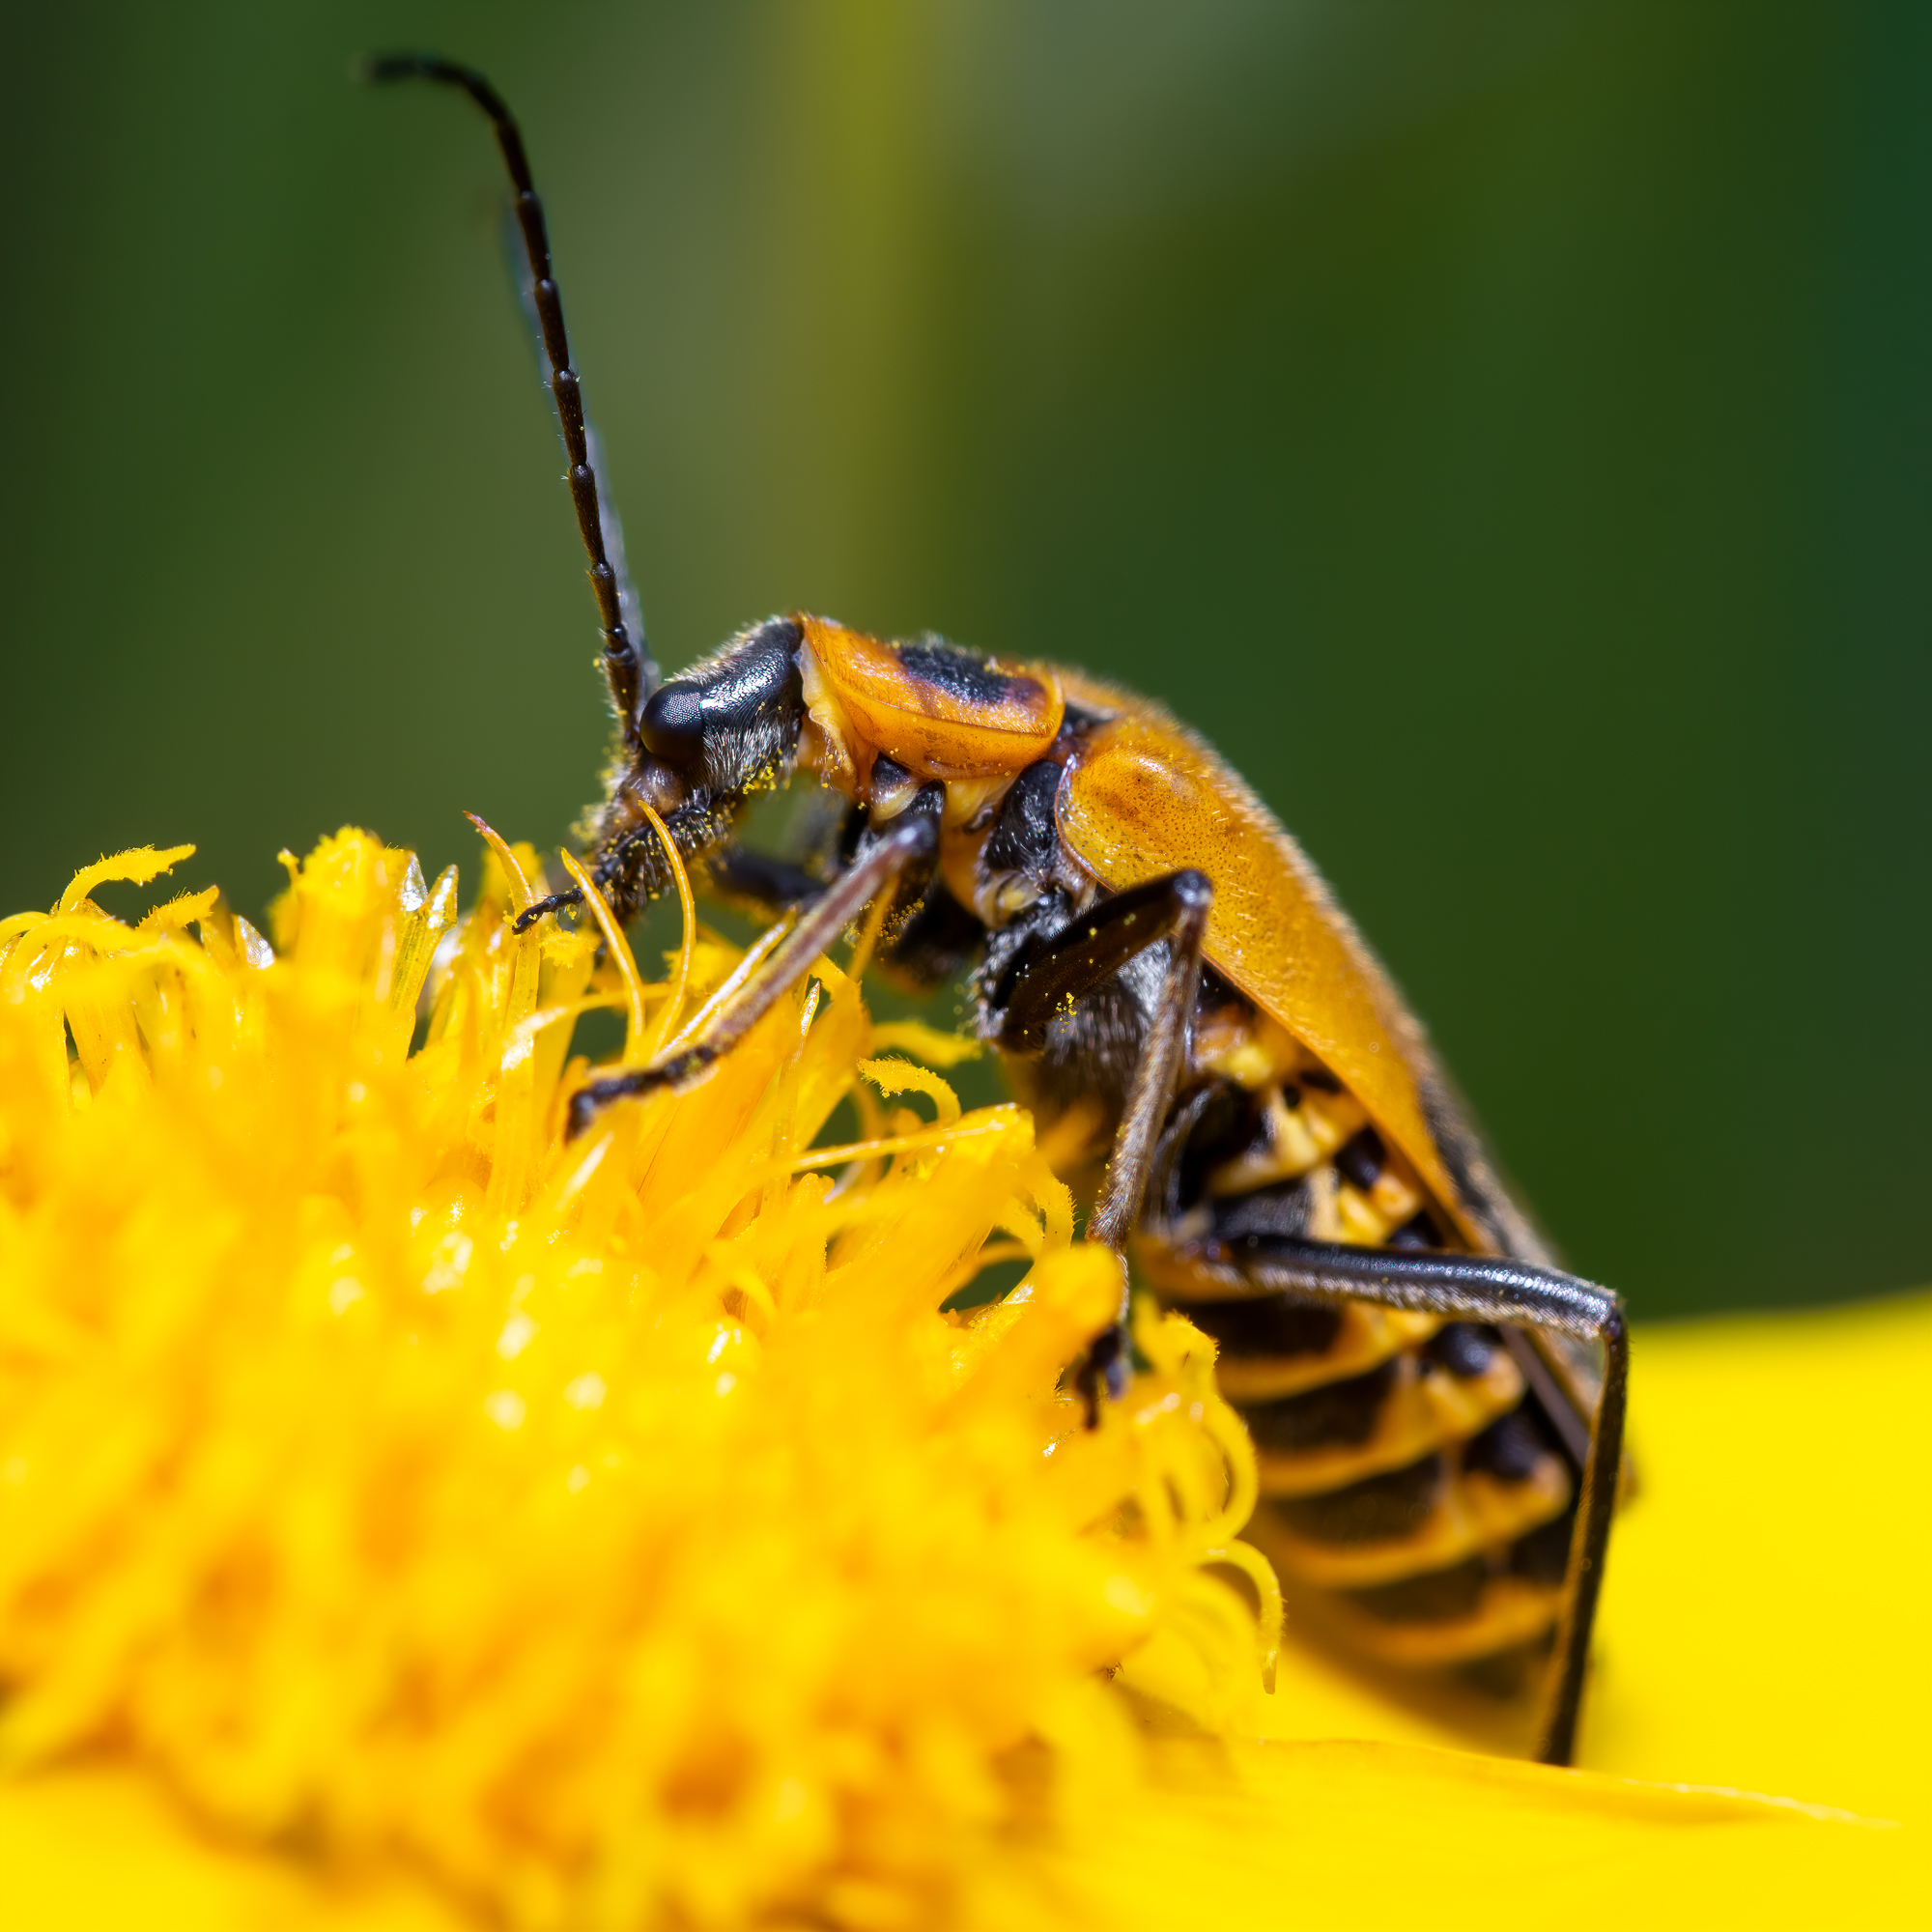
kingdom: Animalia
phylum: Arthropoda
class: Insecta
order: Coleoptera
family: Cantharidae
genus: Chauliognathus
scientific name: Chauliognathus pensylvanicus
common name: Goldenrod soldier beetle
